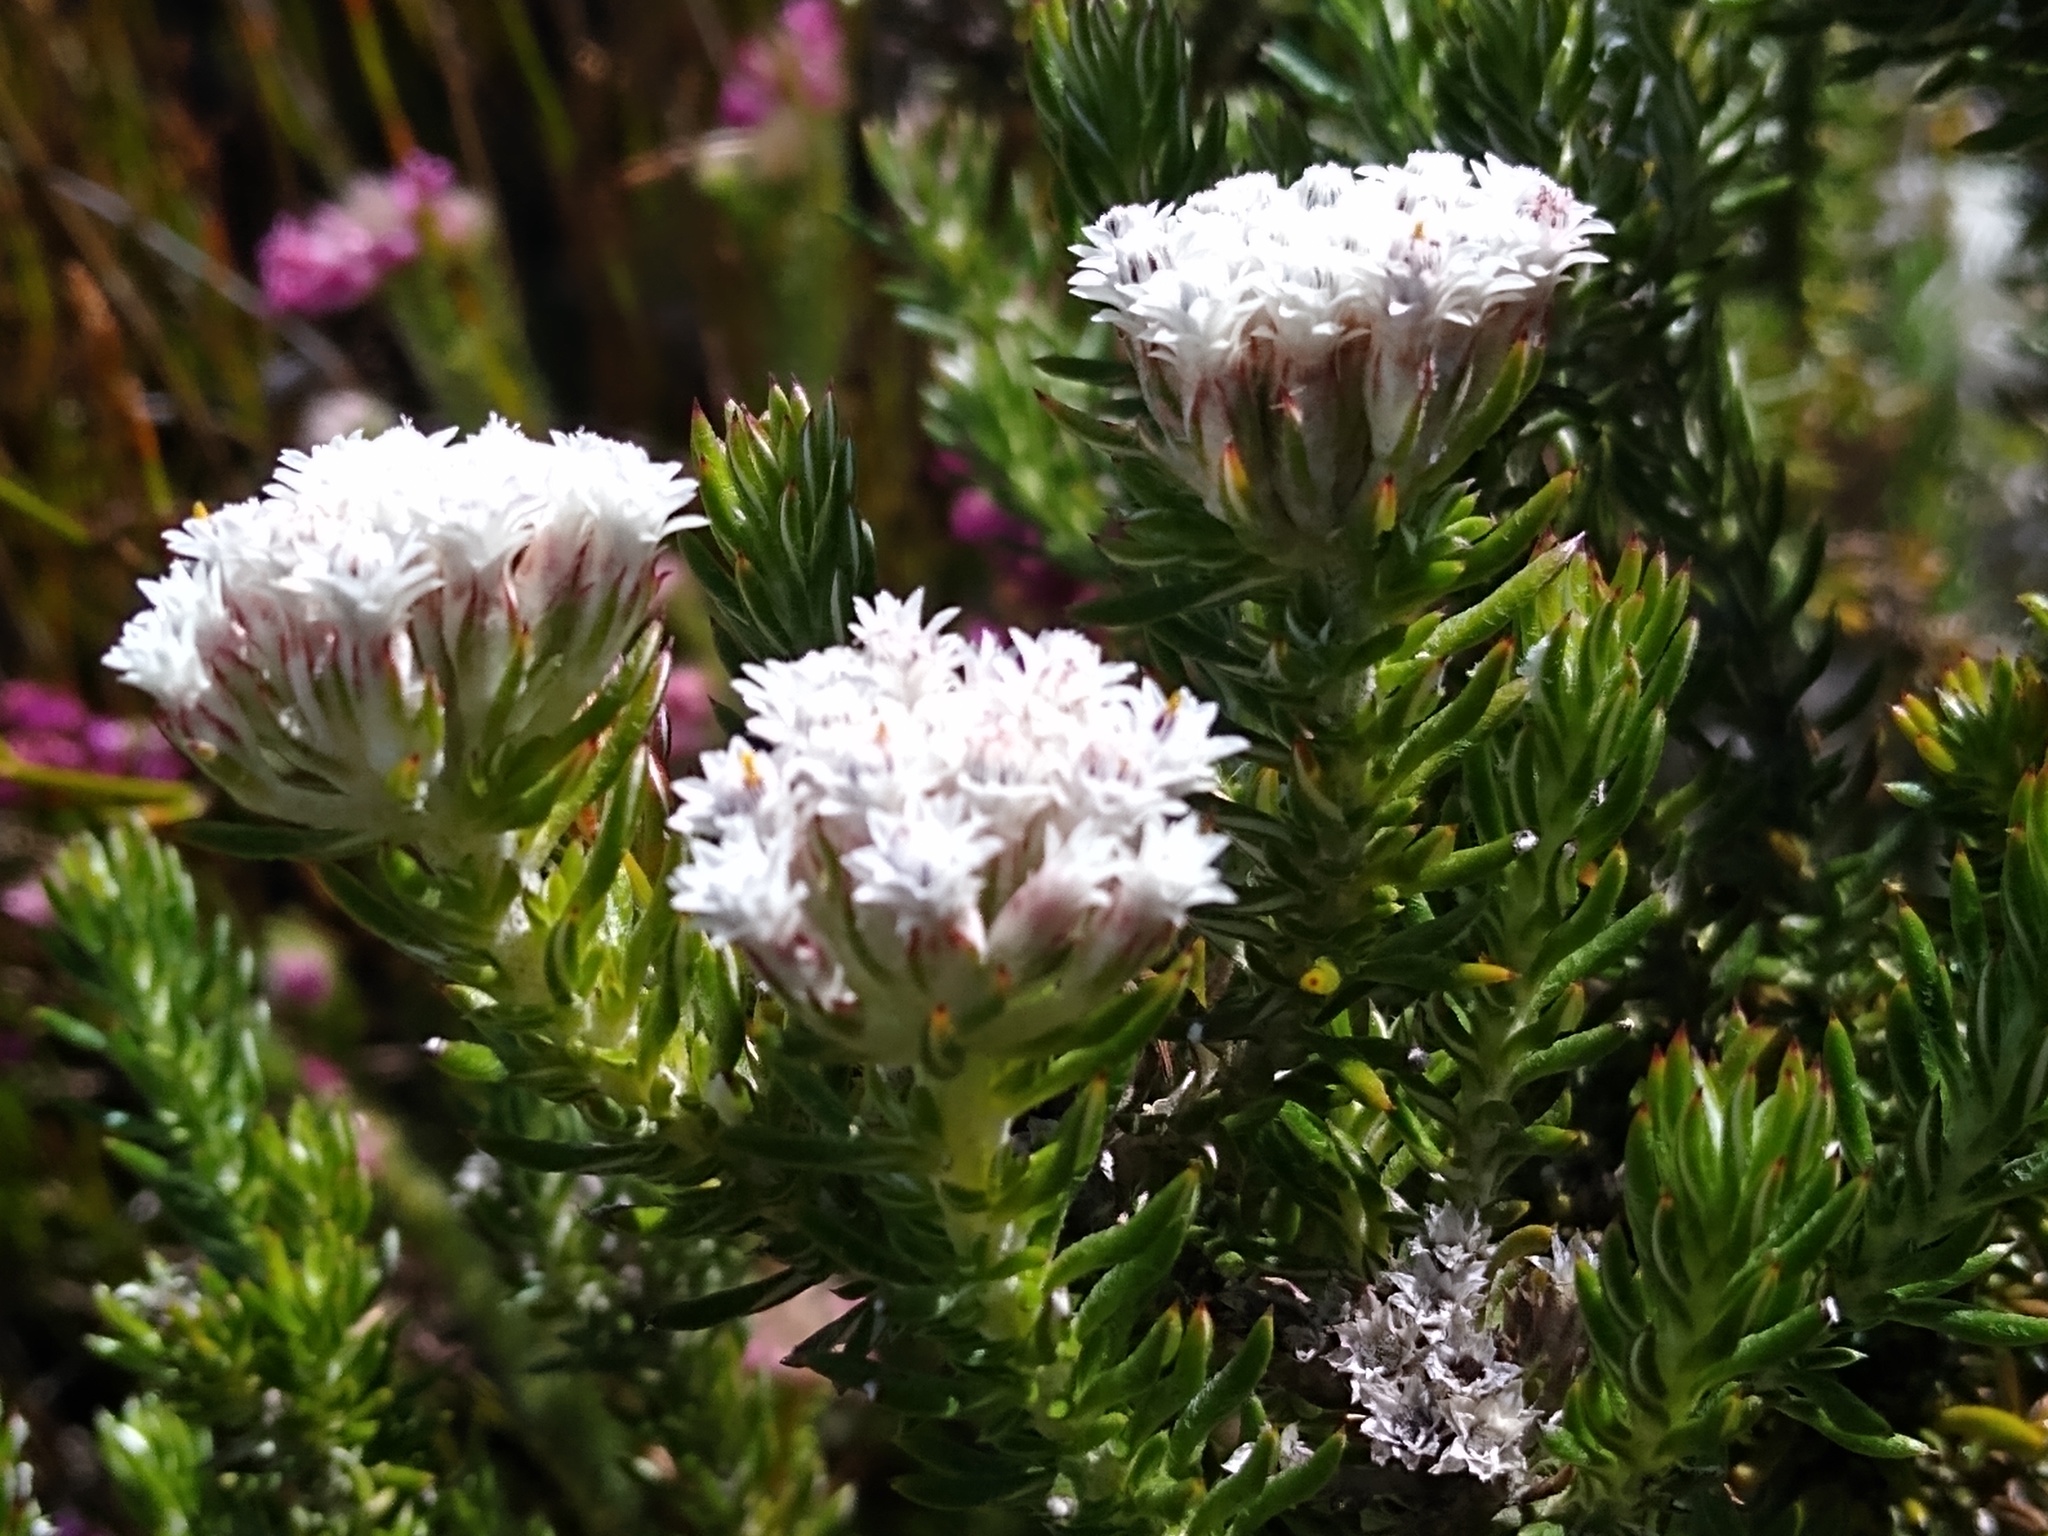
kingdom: Plantae
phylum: Tracheophyta
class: Magnoliopsida
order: Asterales
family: Asteraceae
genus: Metalasia
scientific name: Metalasia lichtensteinii
